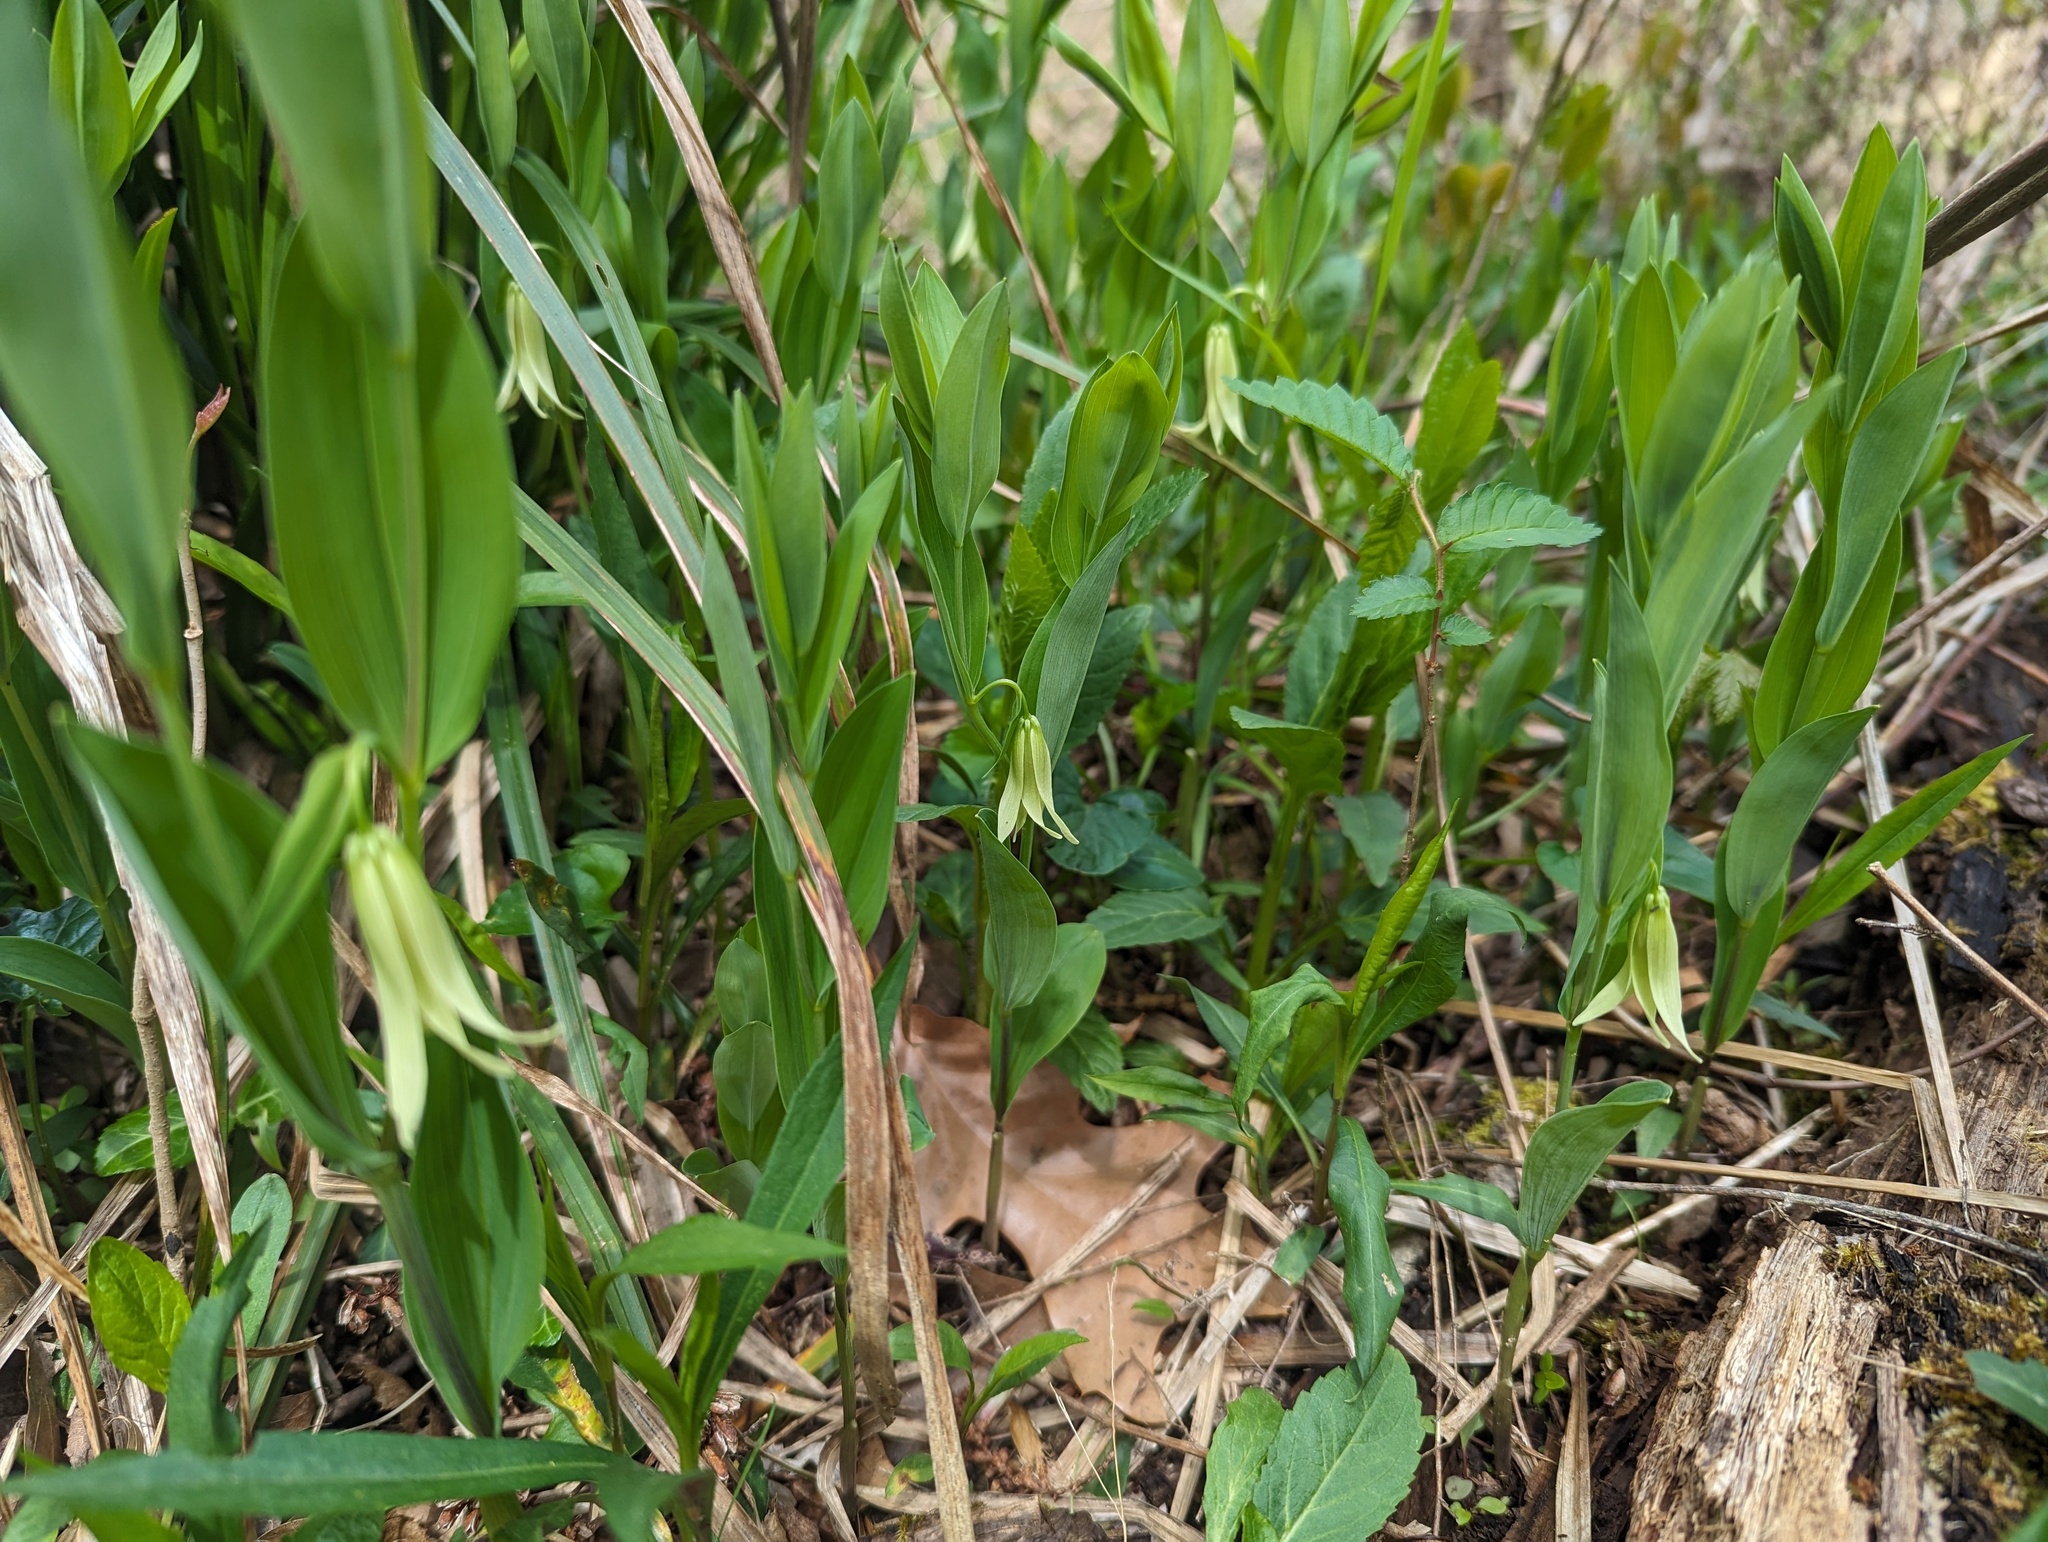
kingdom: Plantae
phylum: Tracheophyta
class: Liliopsida
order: Liliales
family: Colchicaceae
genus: Uvularia
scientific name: Uvularia floridana
